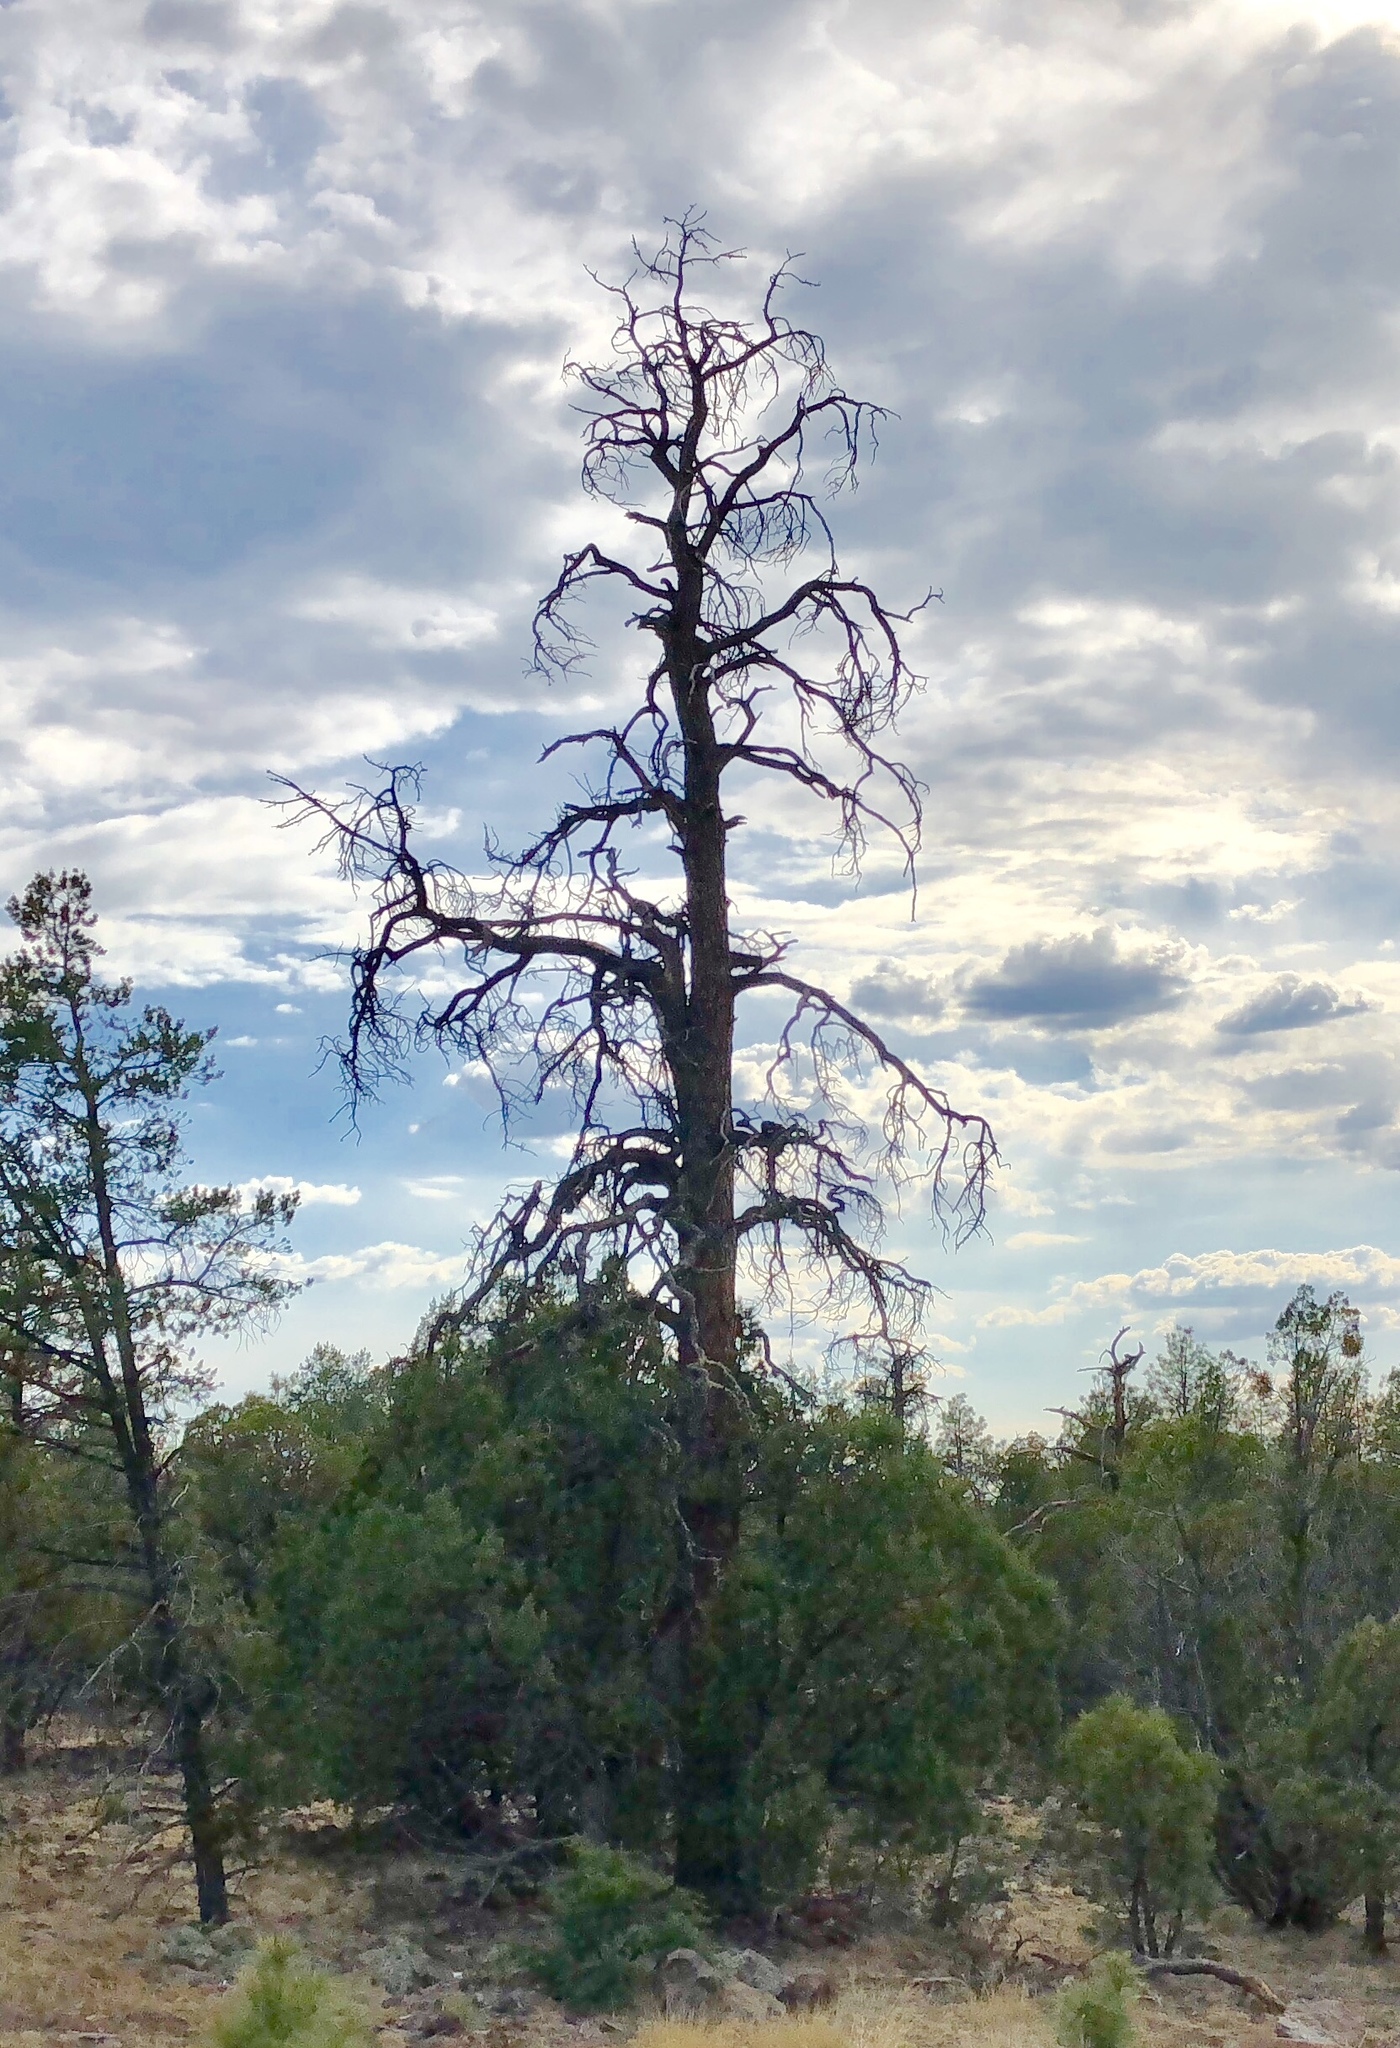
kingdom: Plantae
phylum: Tracheophyta
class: Pinopsida
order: Pinales
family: Pinaceae
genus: Pinus
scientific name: Pinus ponderosa
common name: Western yellow-pine
